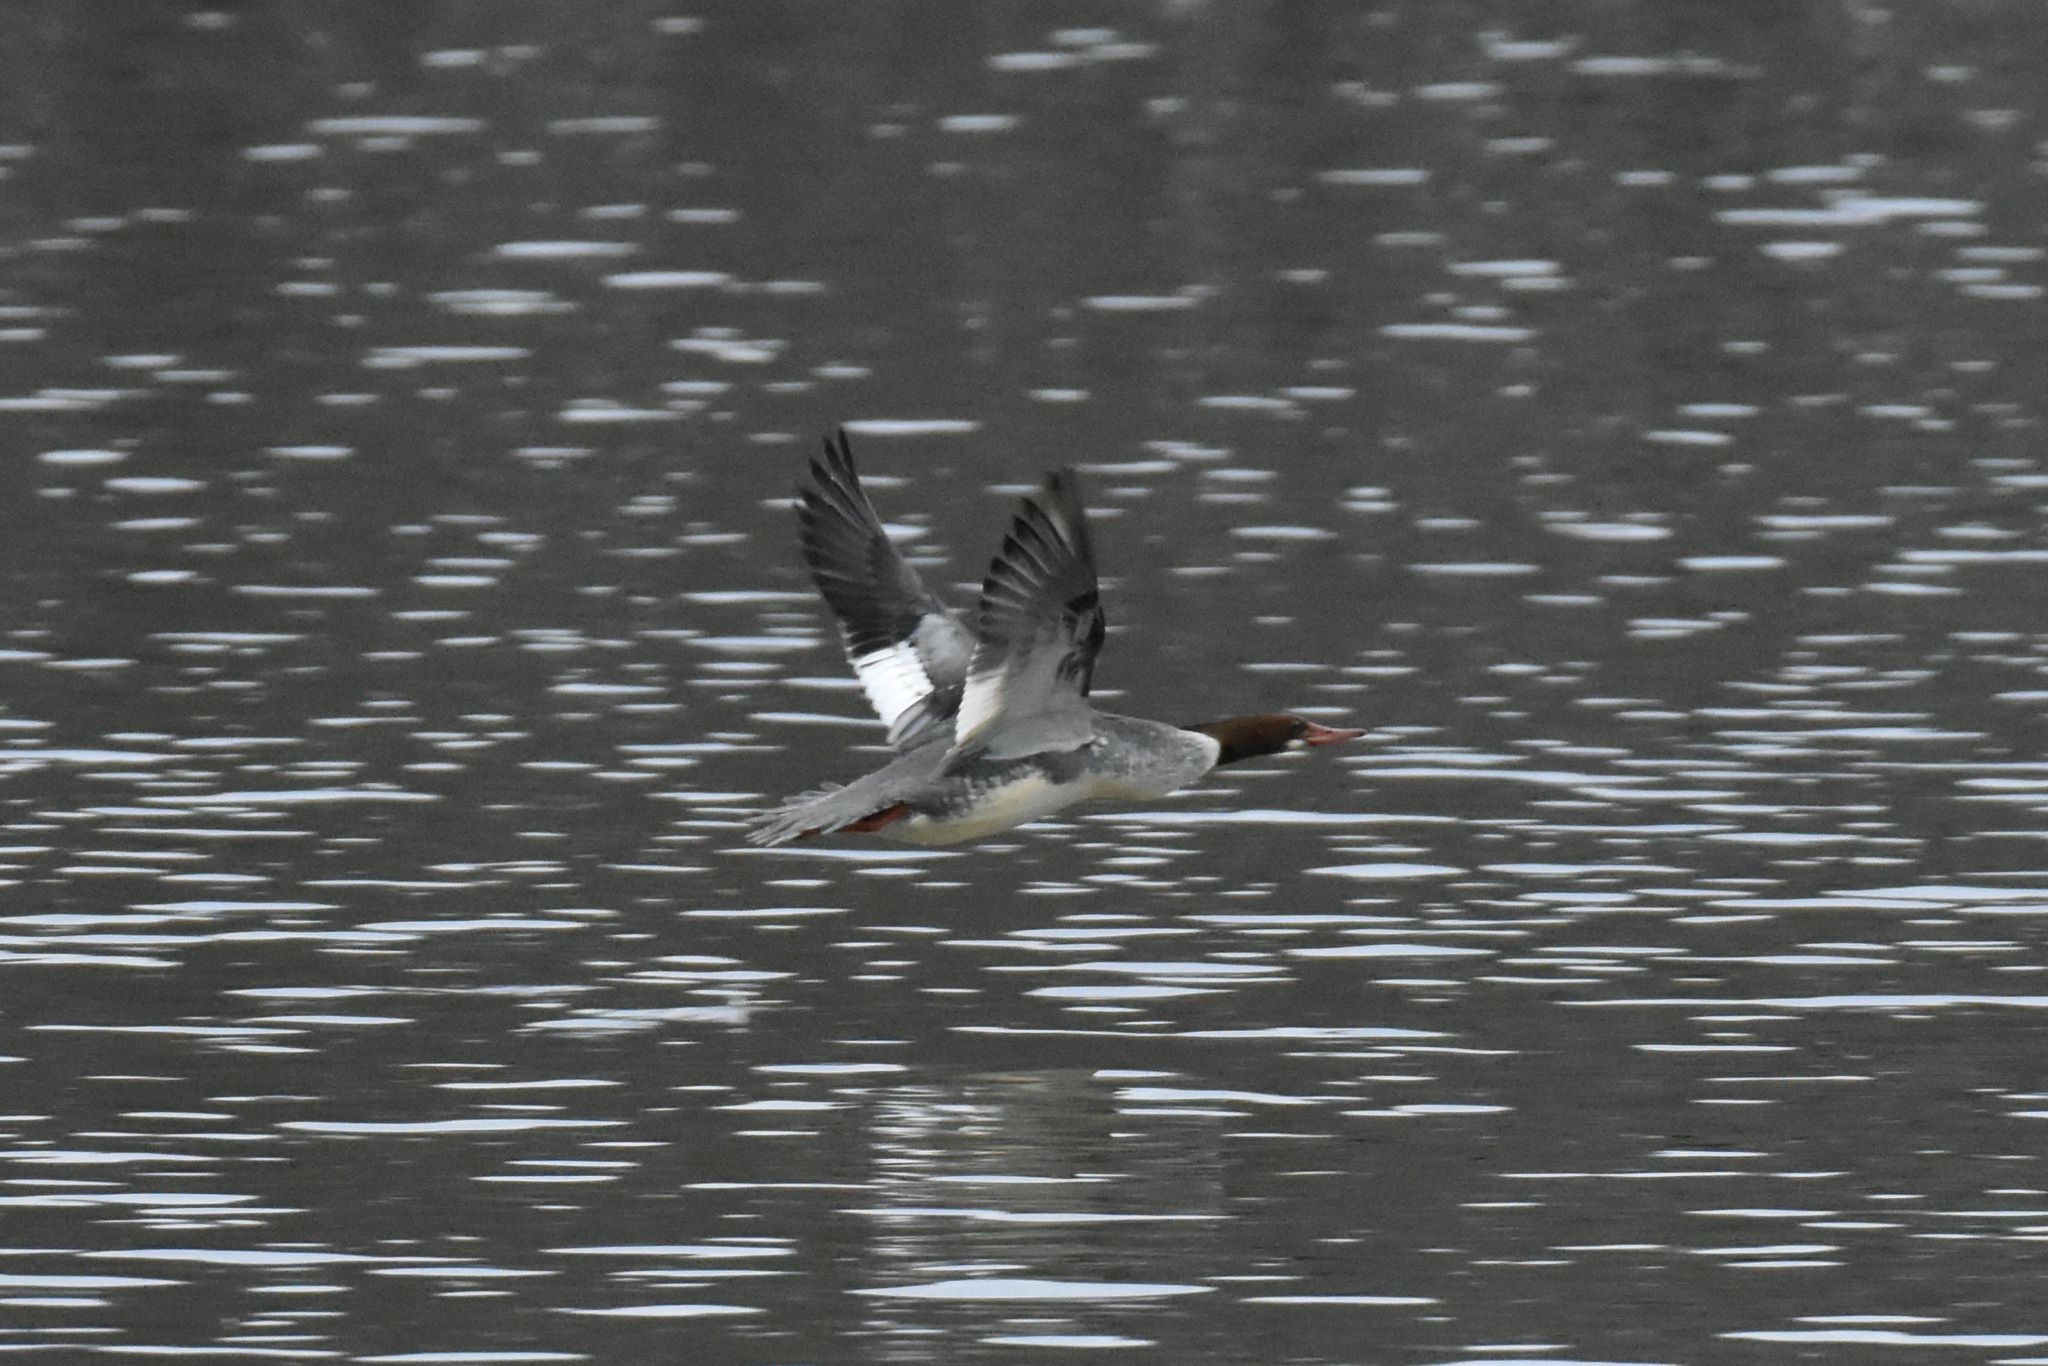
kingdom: Animalia
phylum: Chordata
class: Aves
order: Anseriformes
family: Anatidae
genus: Mergus
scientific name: Mergus merganser
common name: Common merganser
